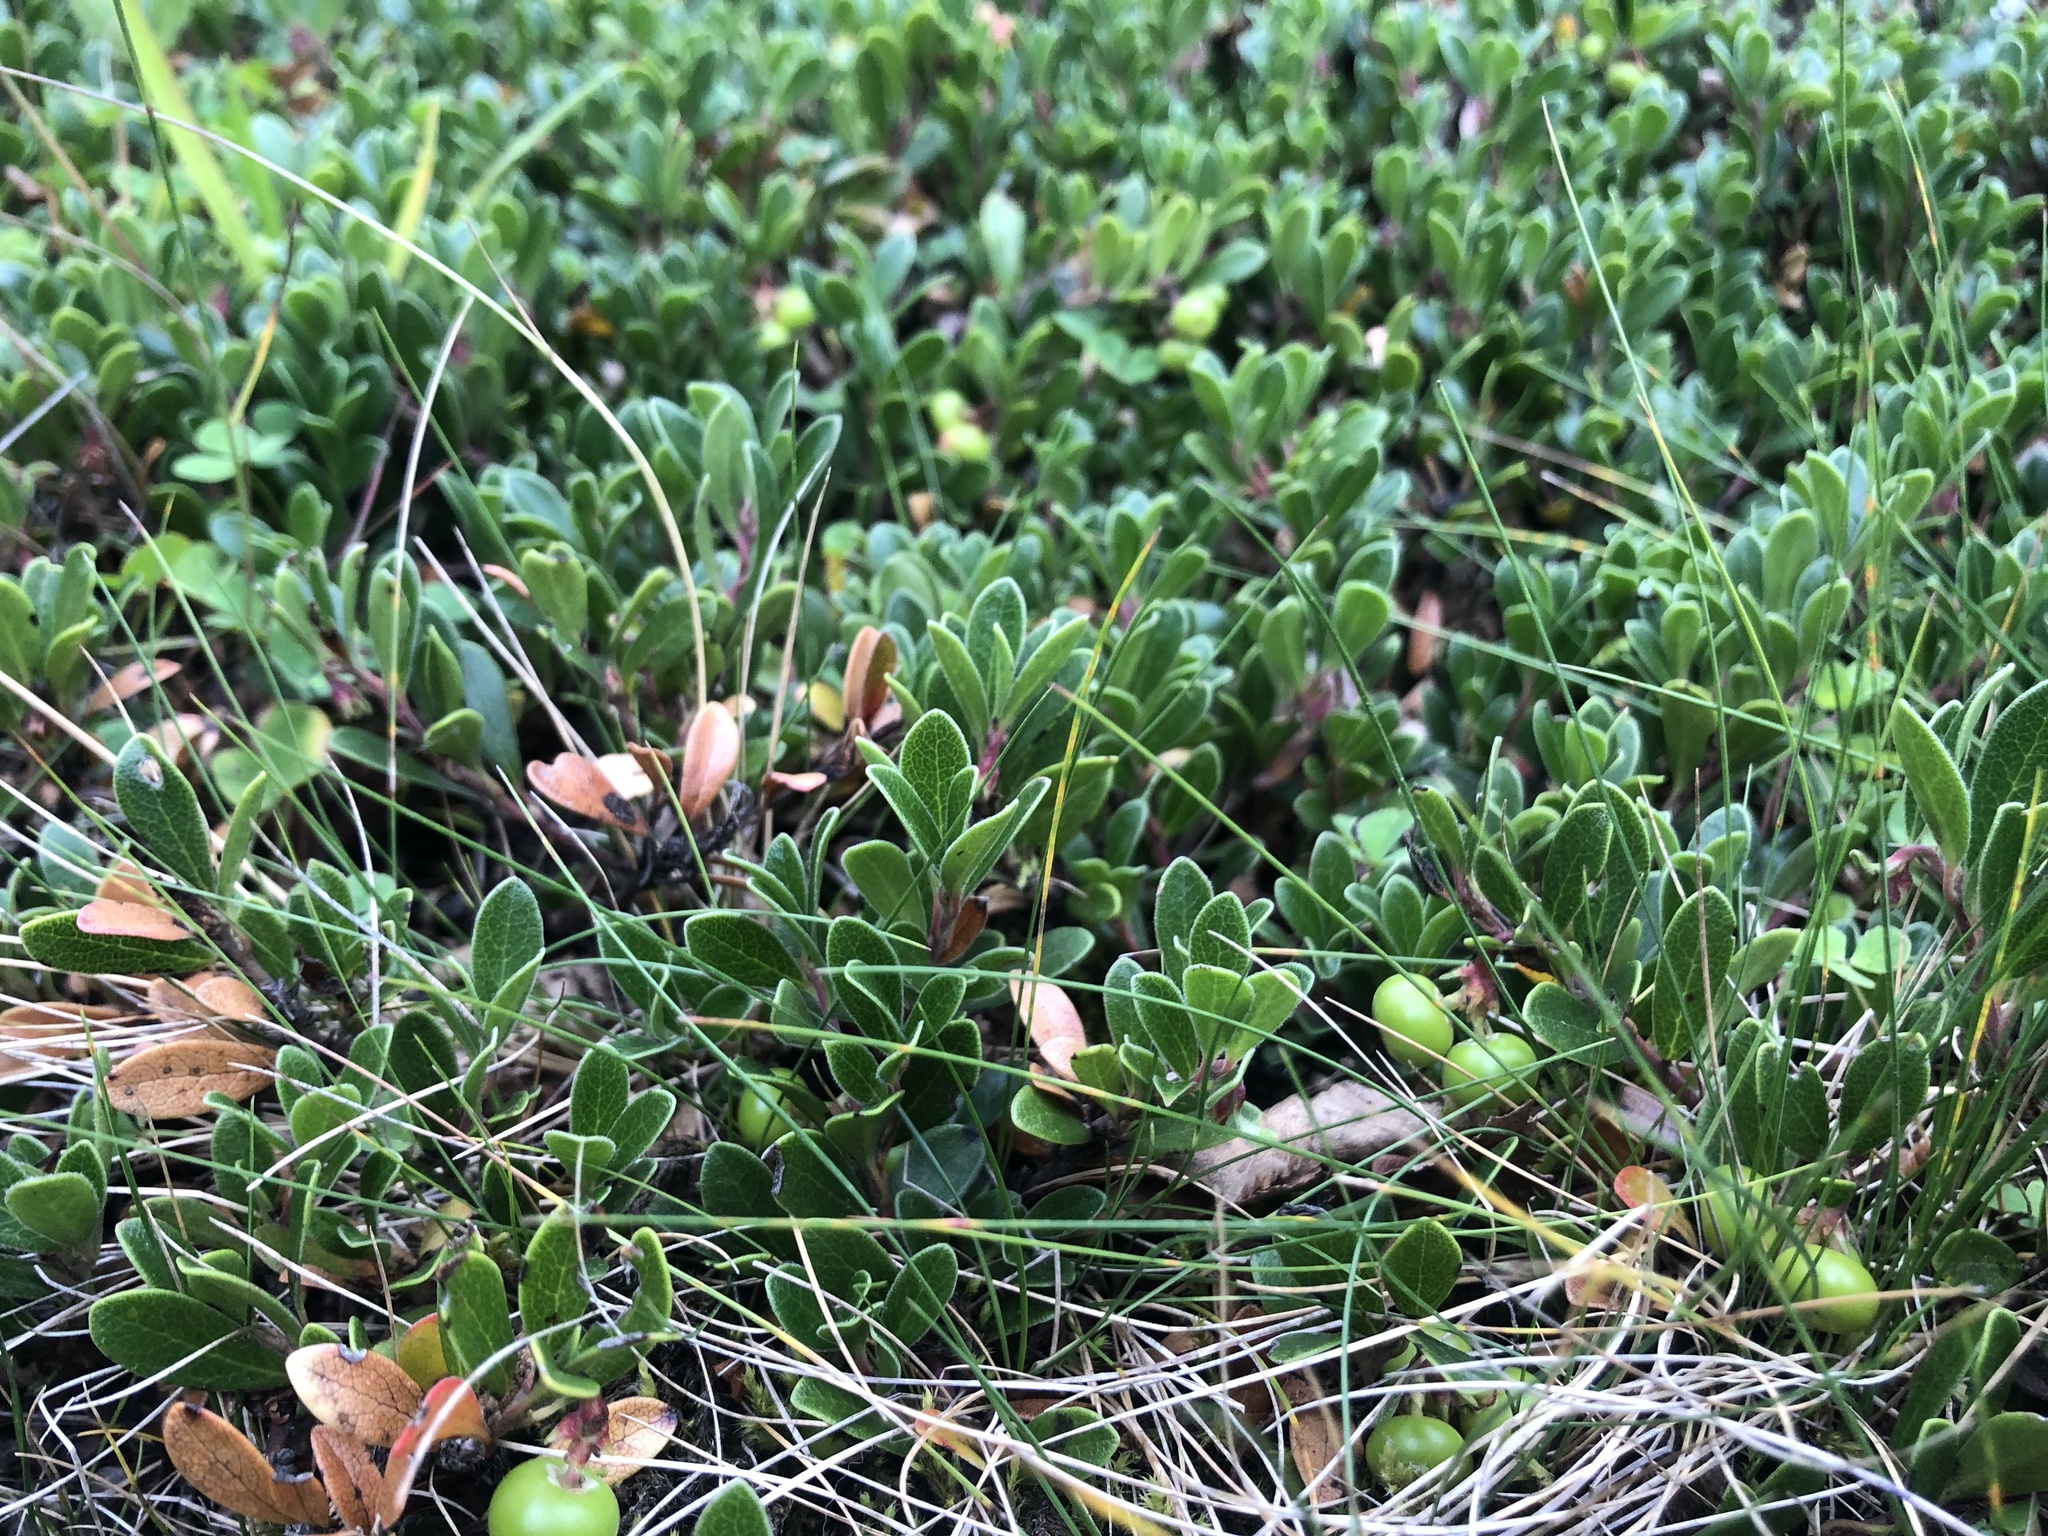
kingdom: Plantae
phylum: Tracheophyta
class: Magnoliopsida
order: Ericales
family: Ericaceae
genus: Arctostaphylos
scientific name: Arctostaphylos uva-ursi
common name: Bearberry
